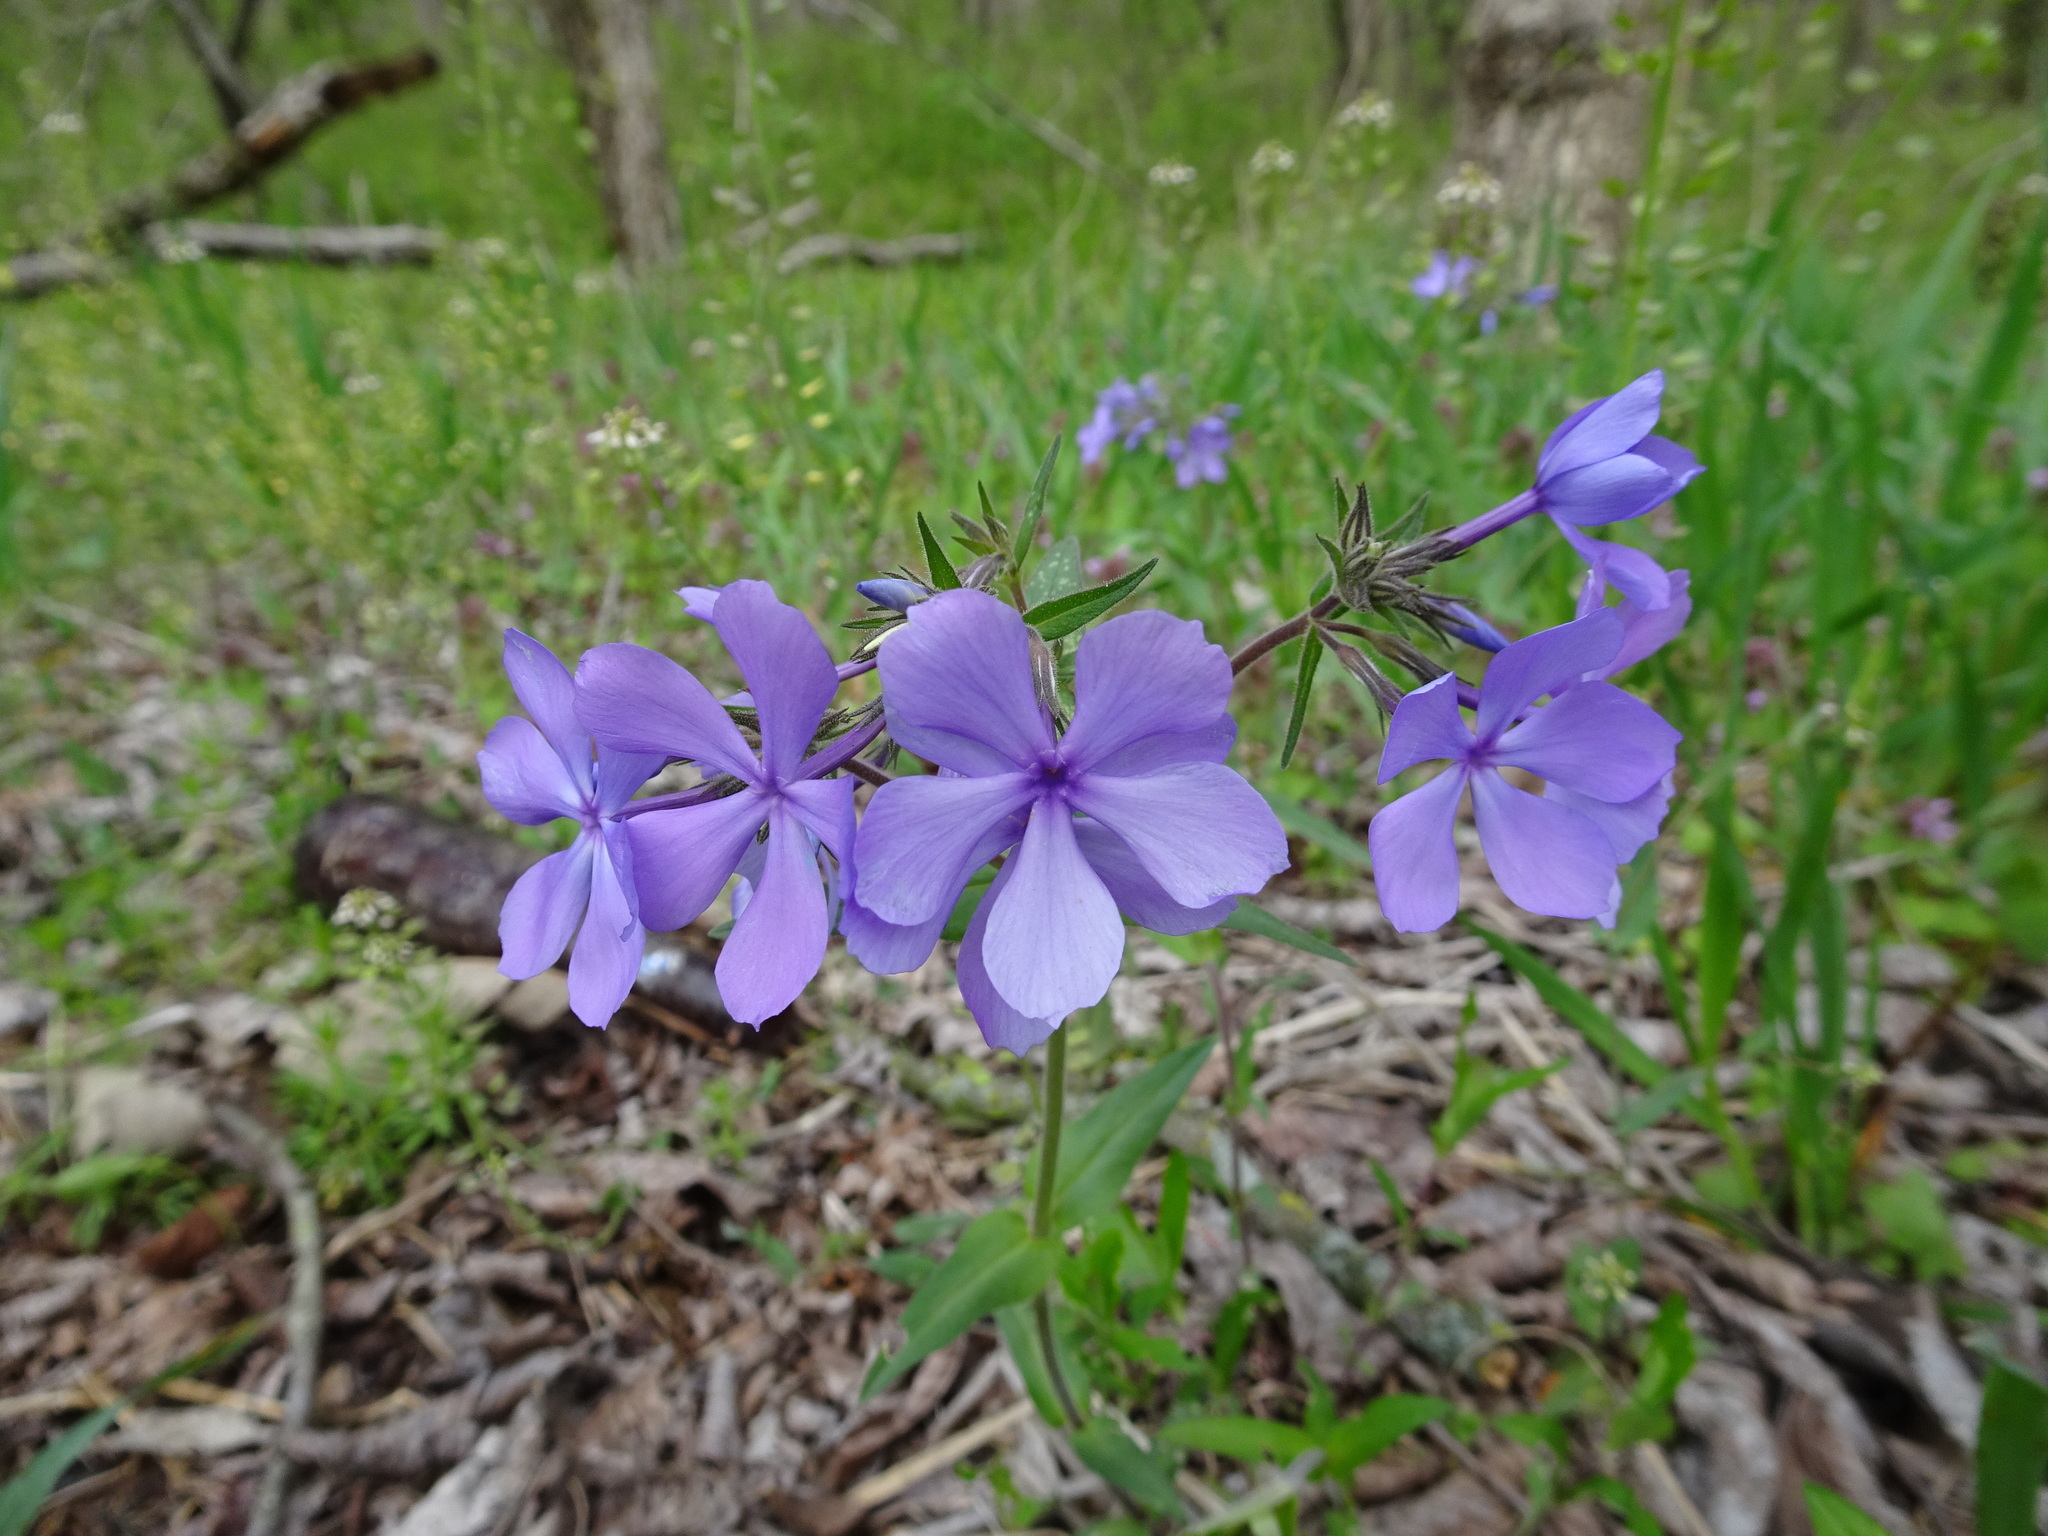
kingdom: Plantae
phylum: Tracheophyta
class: Magnoliopsida
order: Ericales
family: Polemoniaceae
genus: Phlox
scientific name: Phlox divaricata
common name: Blue phlox
